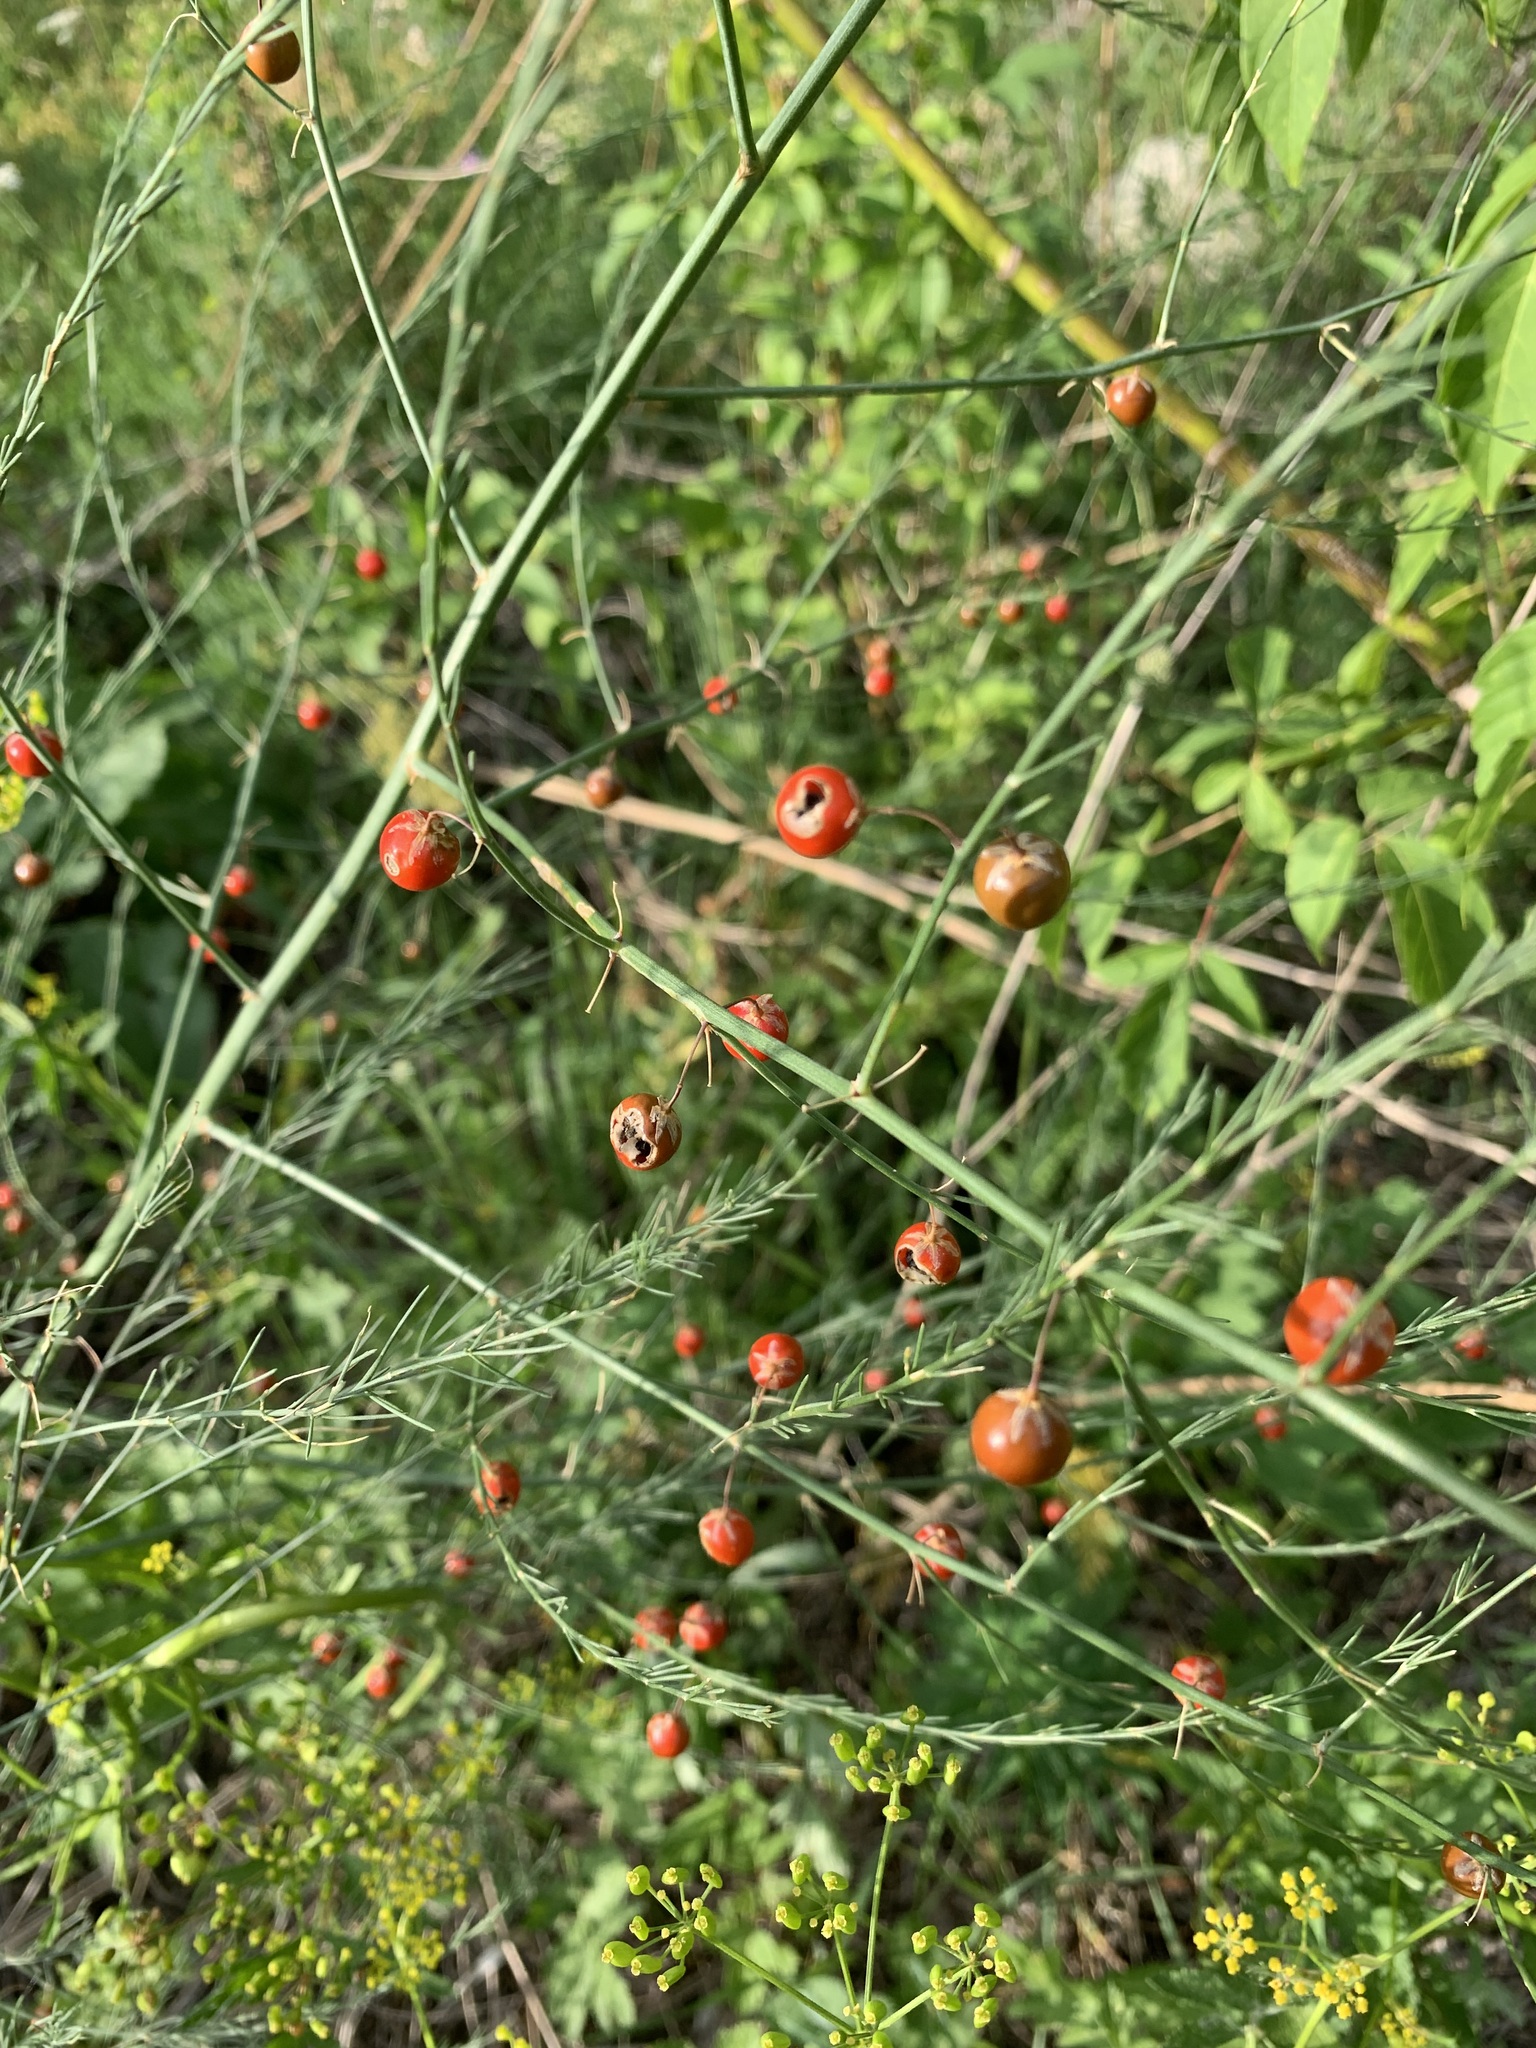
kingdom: Plantae
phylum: Tracheophyta
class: Liliopsida
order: Asparagales
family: Asparagaceae
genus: Asparagus
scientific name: Asparagus officinalis
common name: Garden asparagus
